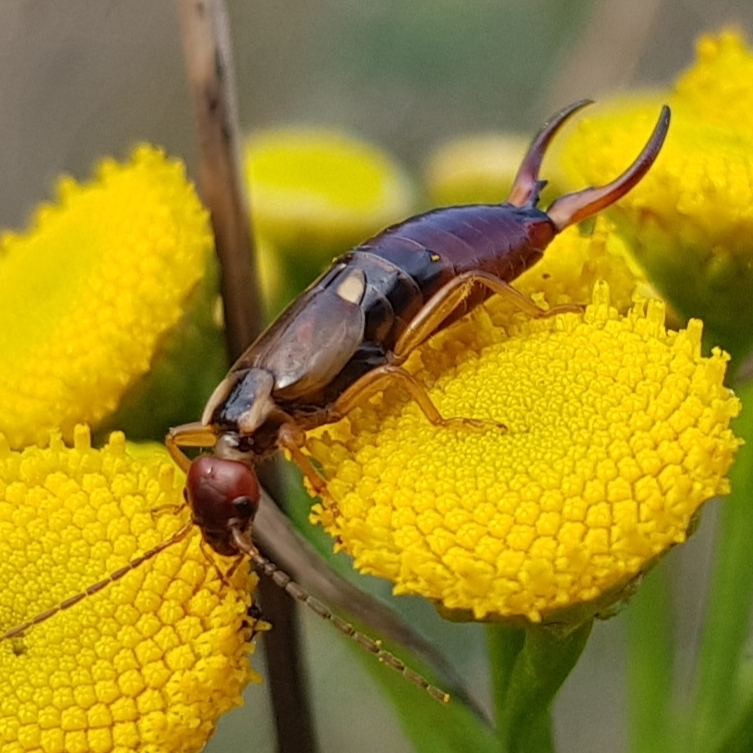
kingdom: Animalia
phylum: Arthropoda
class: Insecta
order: Dermaptera
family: Forficulidae
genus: Forficula
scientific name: Forficula
